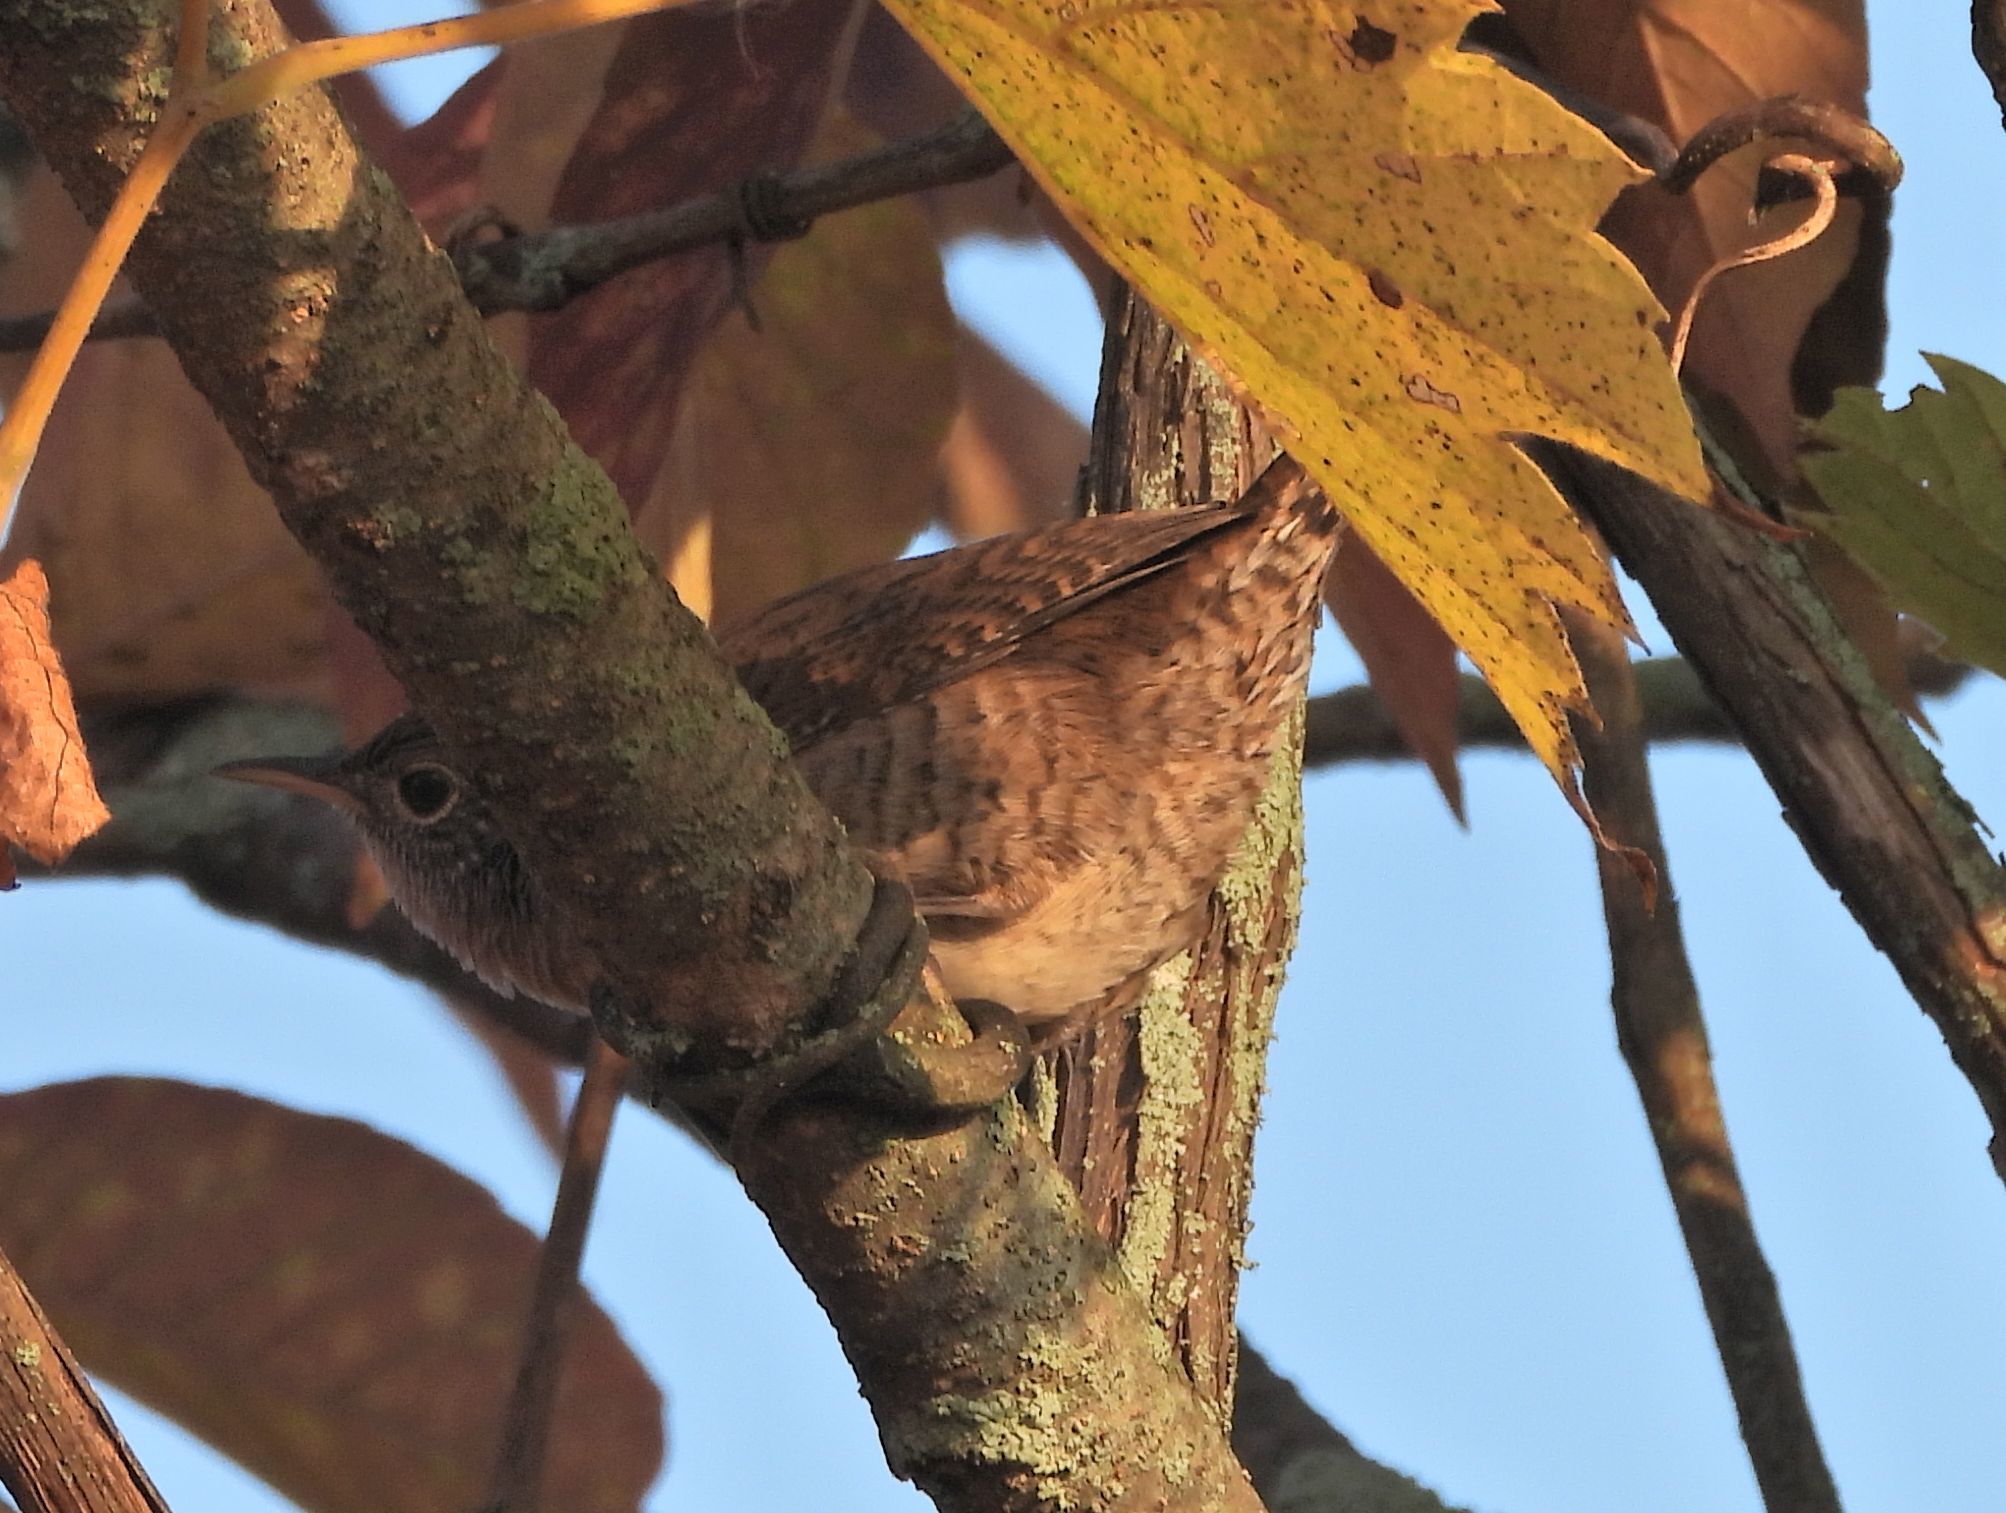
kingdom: Animalia
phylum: Chordata
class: Aves
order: Passeriformes
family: Troglodytidae
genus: Troglodytes
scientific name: Troglodytes aedon
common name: House wren
